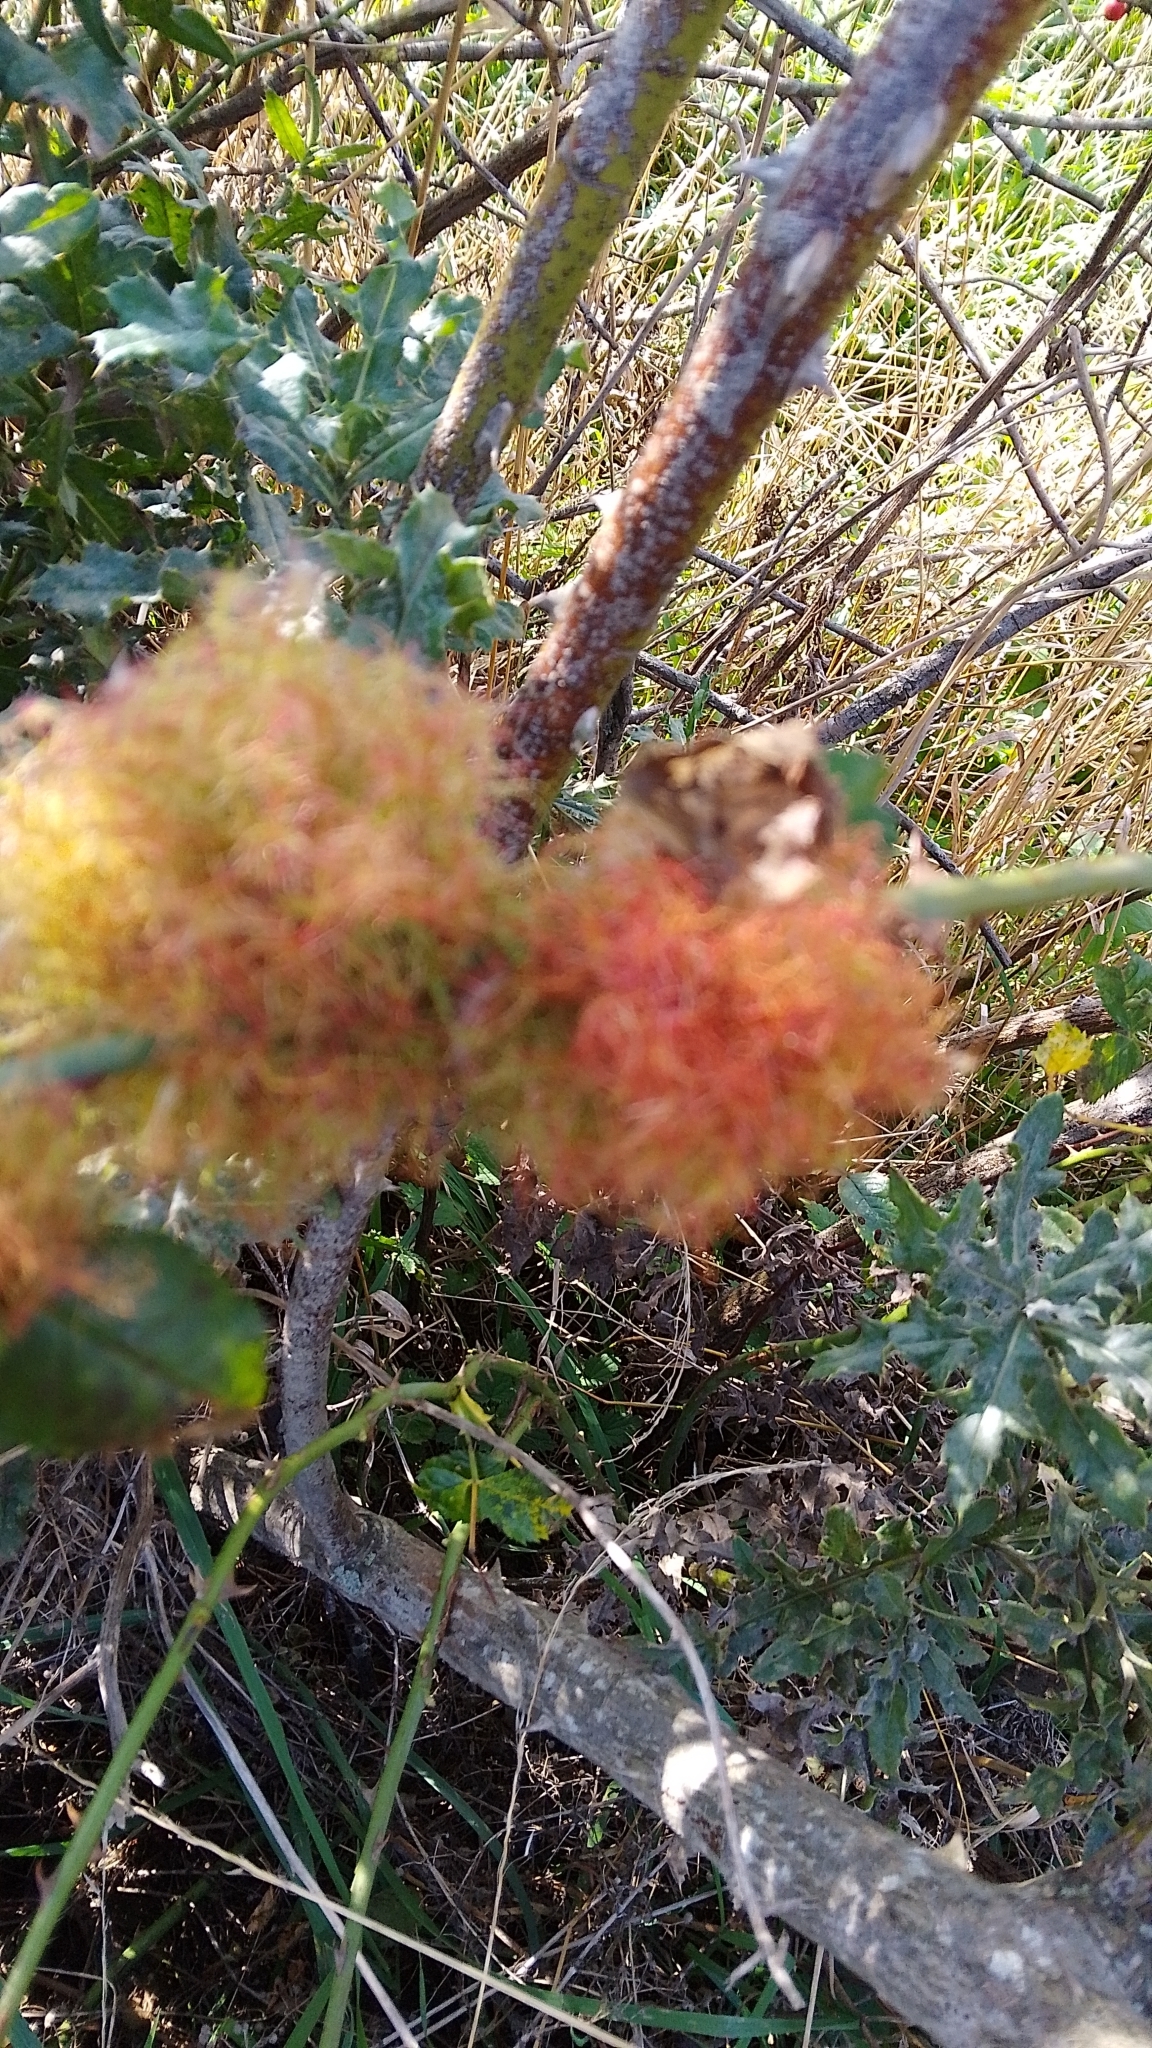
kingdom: Animalia
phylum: Arthropoda
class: Insecta
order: Hymenoptera
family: Cynipidae
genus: Diplolepis
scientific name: Diplolepis rosae
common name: Bedeguar gall
